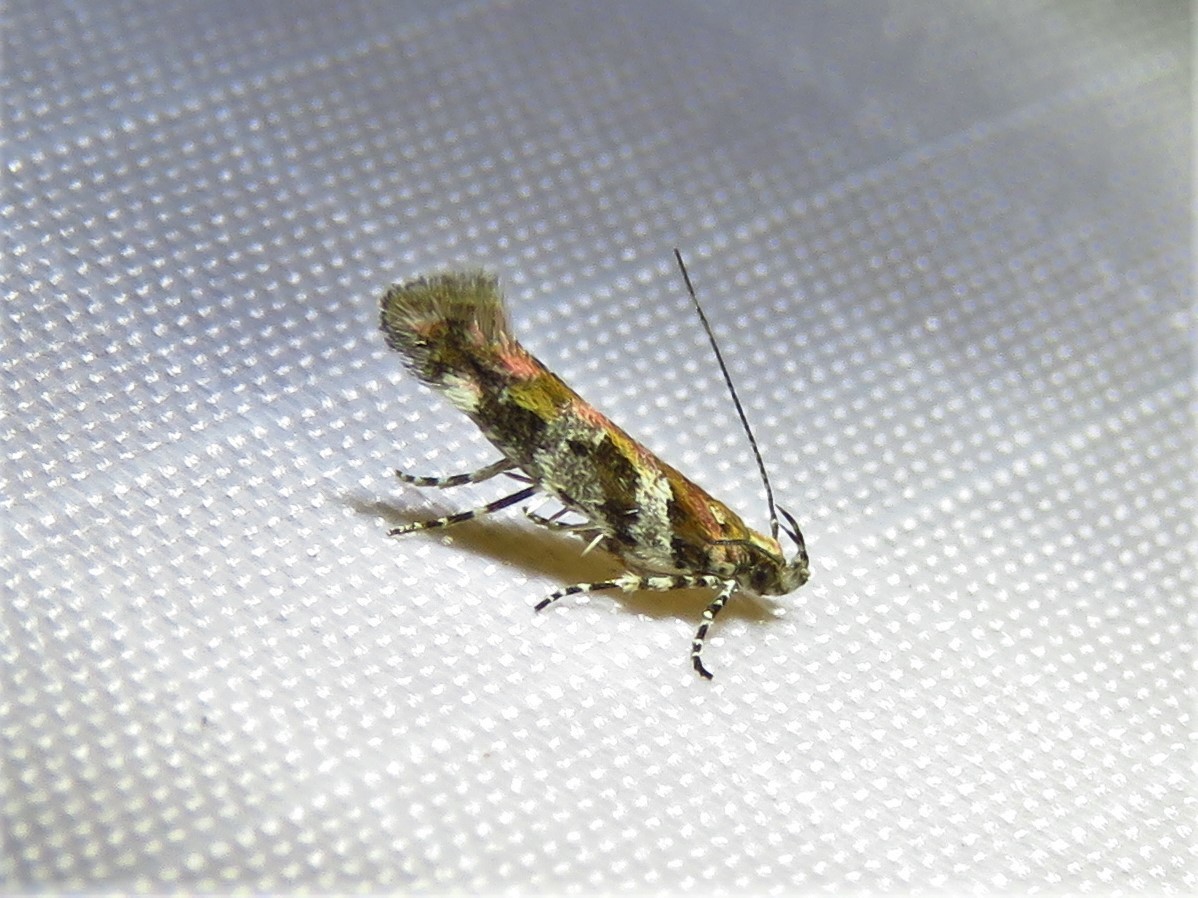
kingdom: Animalia
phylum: Arthropoda
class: Insecta
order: Lepidoptera
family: Gelechiidae
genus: Aristotelia
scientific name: Aristotelia roseosuffusella
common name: Pink-washed aristotelia moth
